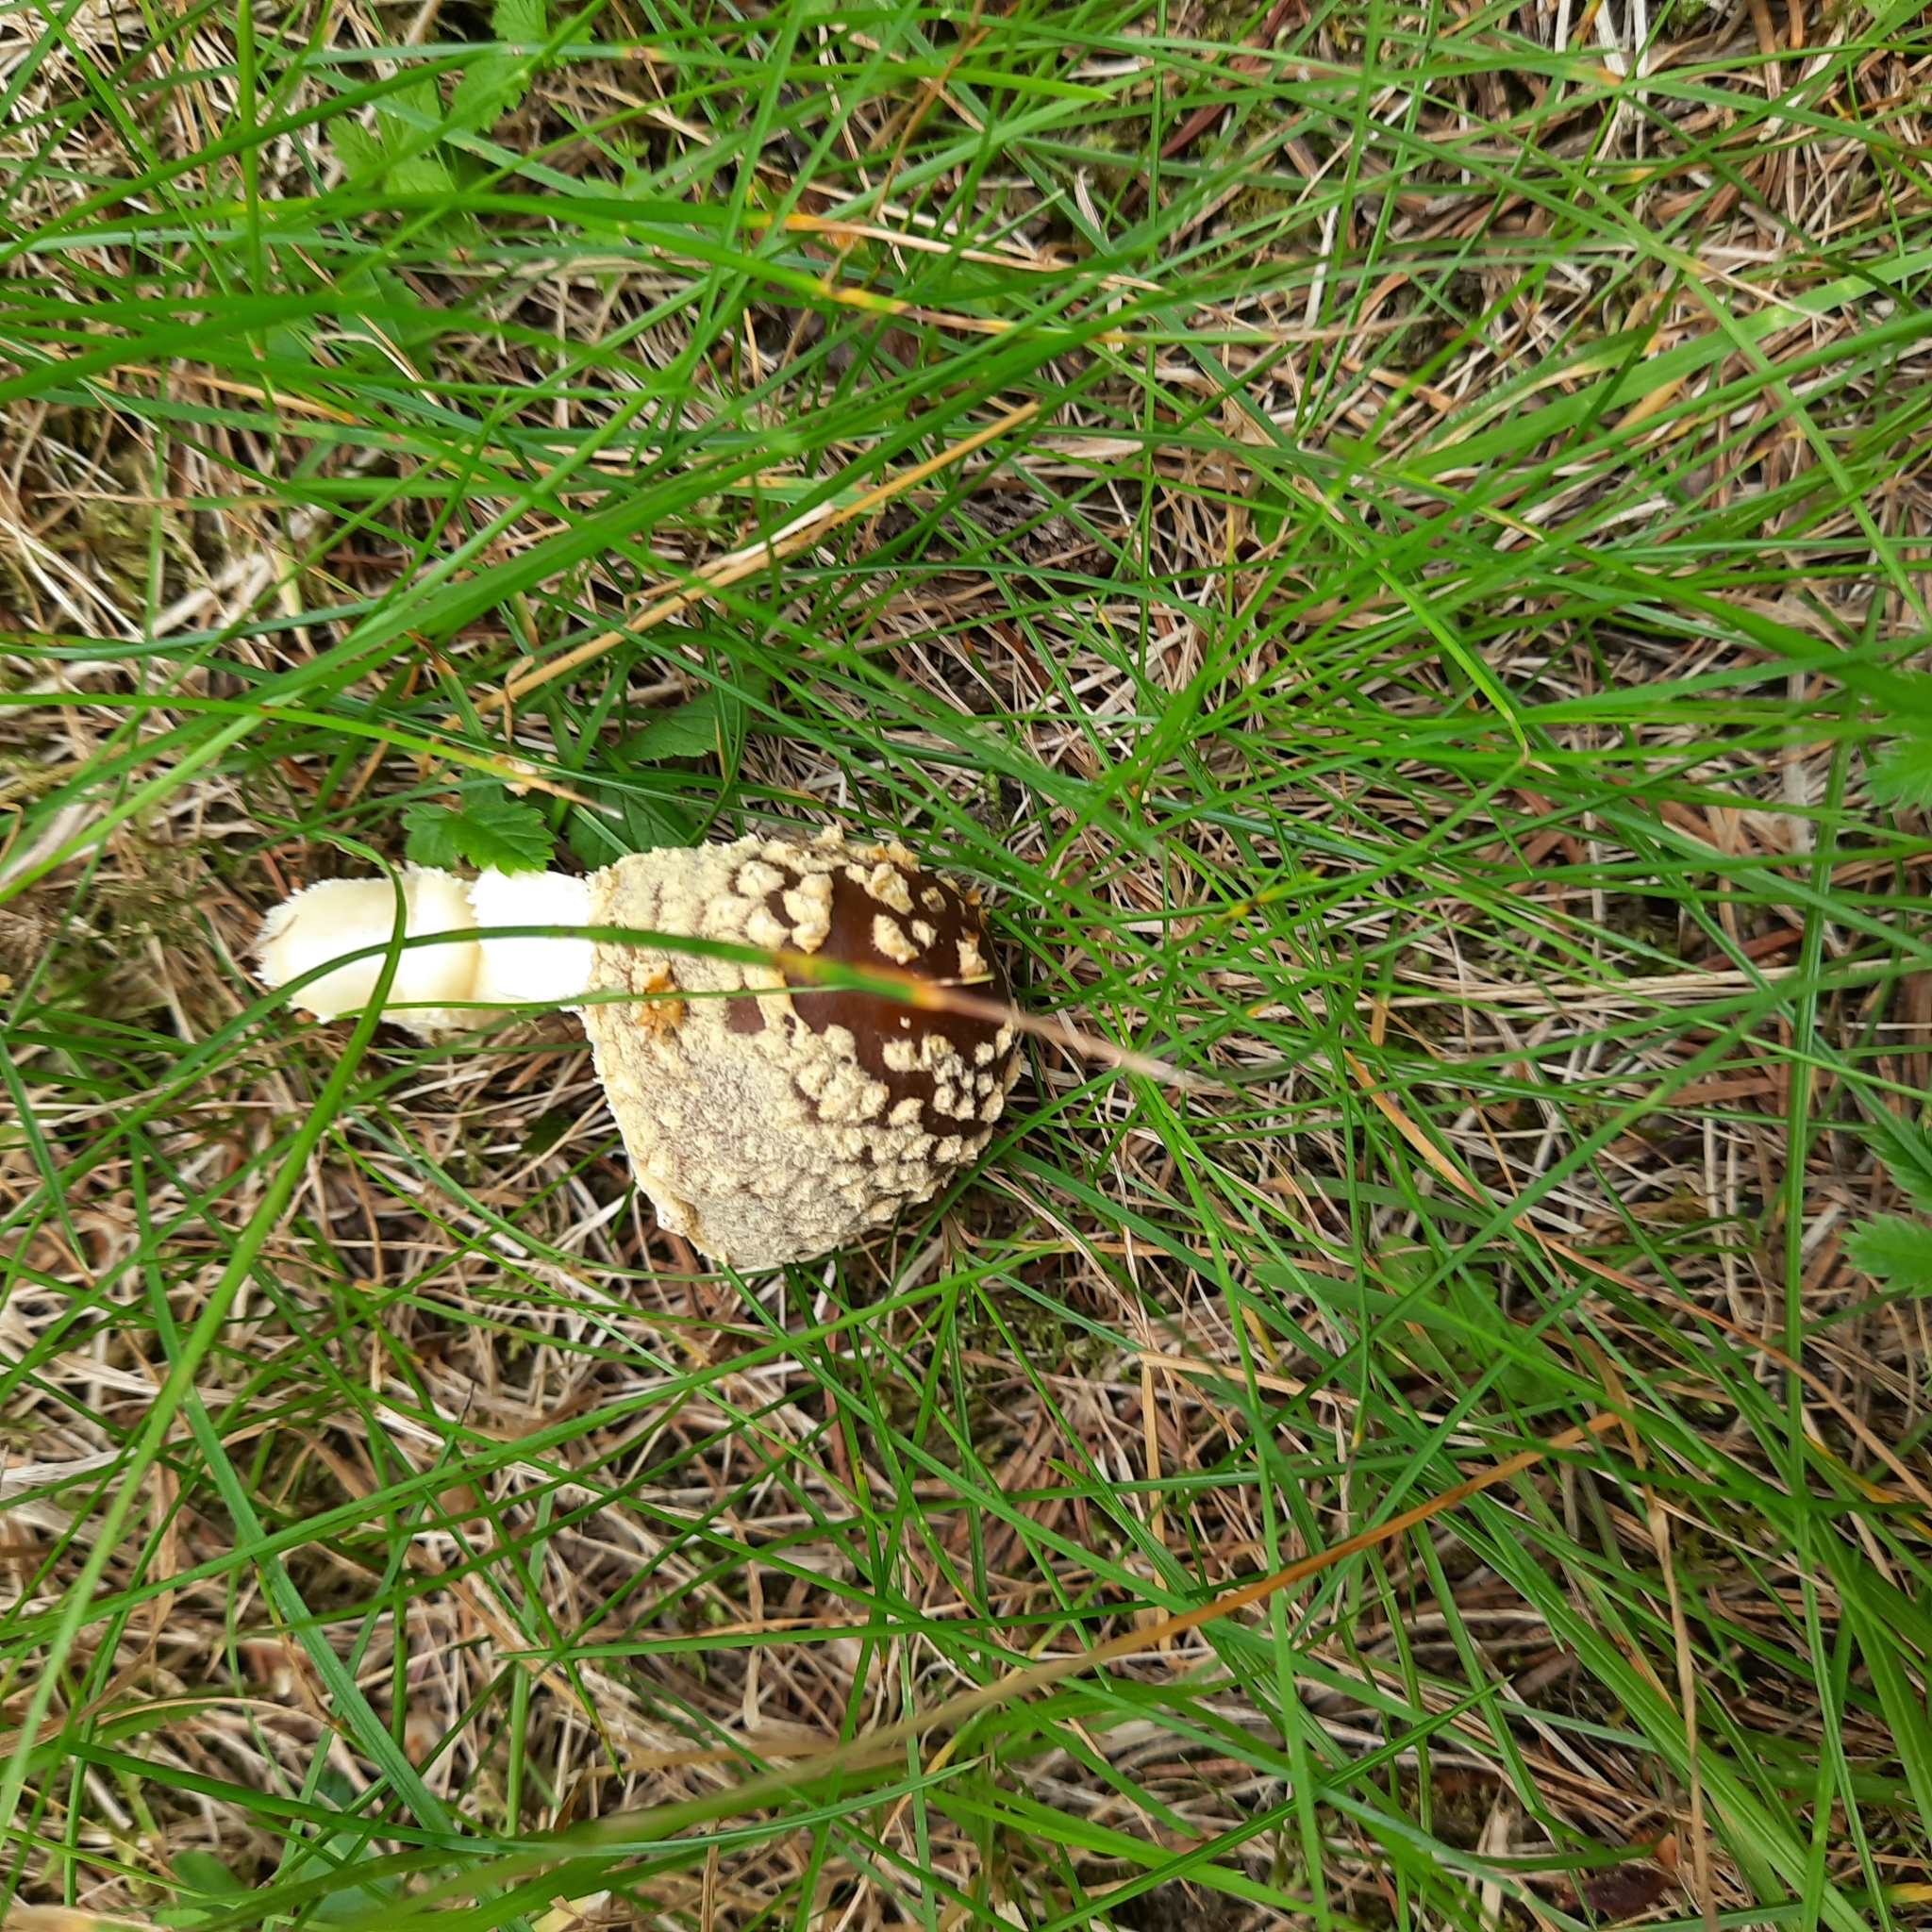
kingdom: Fungi
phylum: Basidiomycota
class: Agaricomycetes
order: Agaricales
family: Amanitaceae
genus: Amanita
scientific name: Amanita regalis
